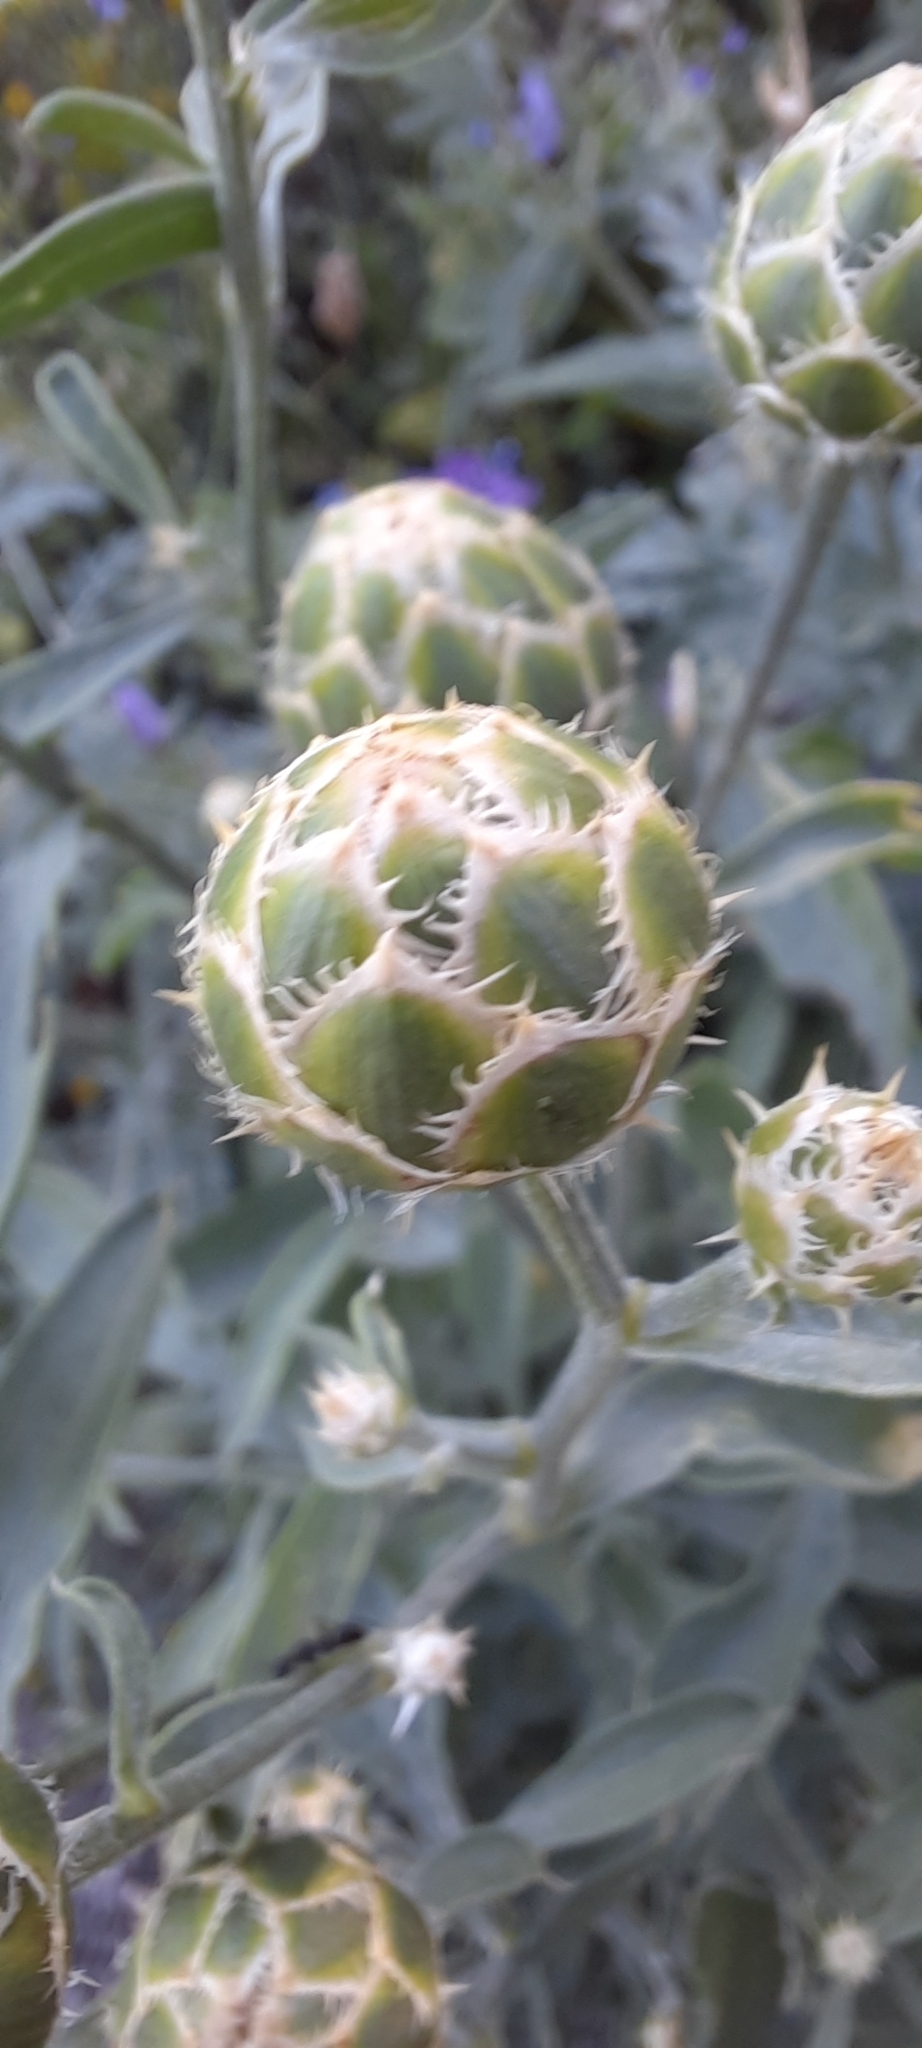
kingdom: Plantae
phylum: Tracheophyta
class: Magnoliopsida
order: Asterales
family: Asteraceae
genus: Centaurea
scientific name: Centaurea salonitana
